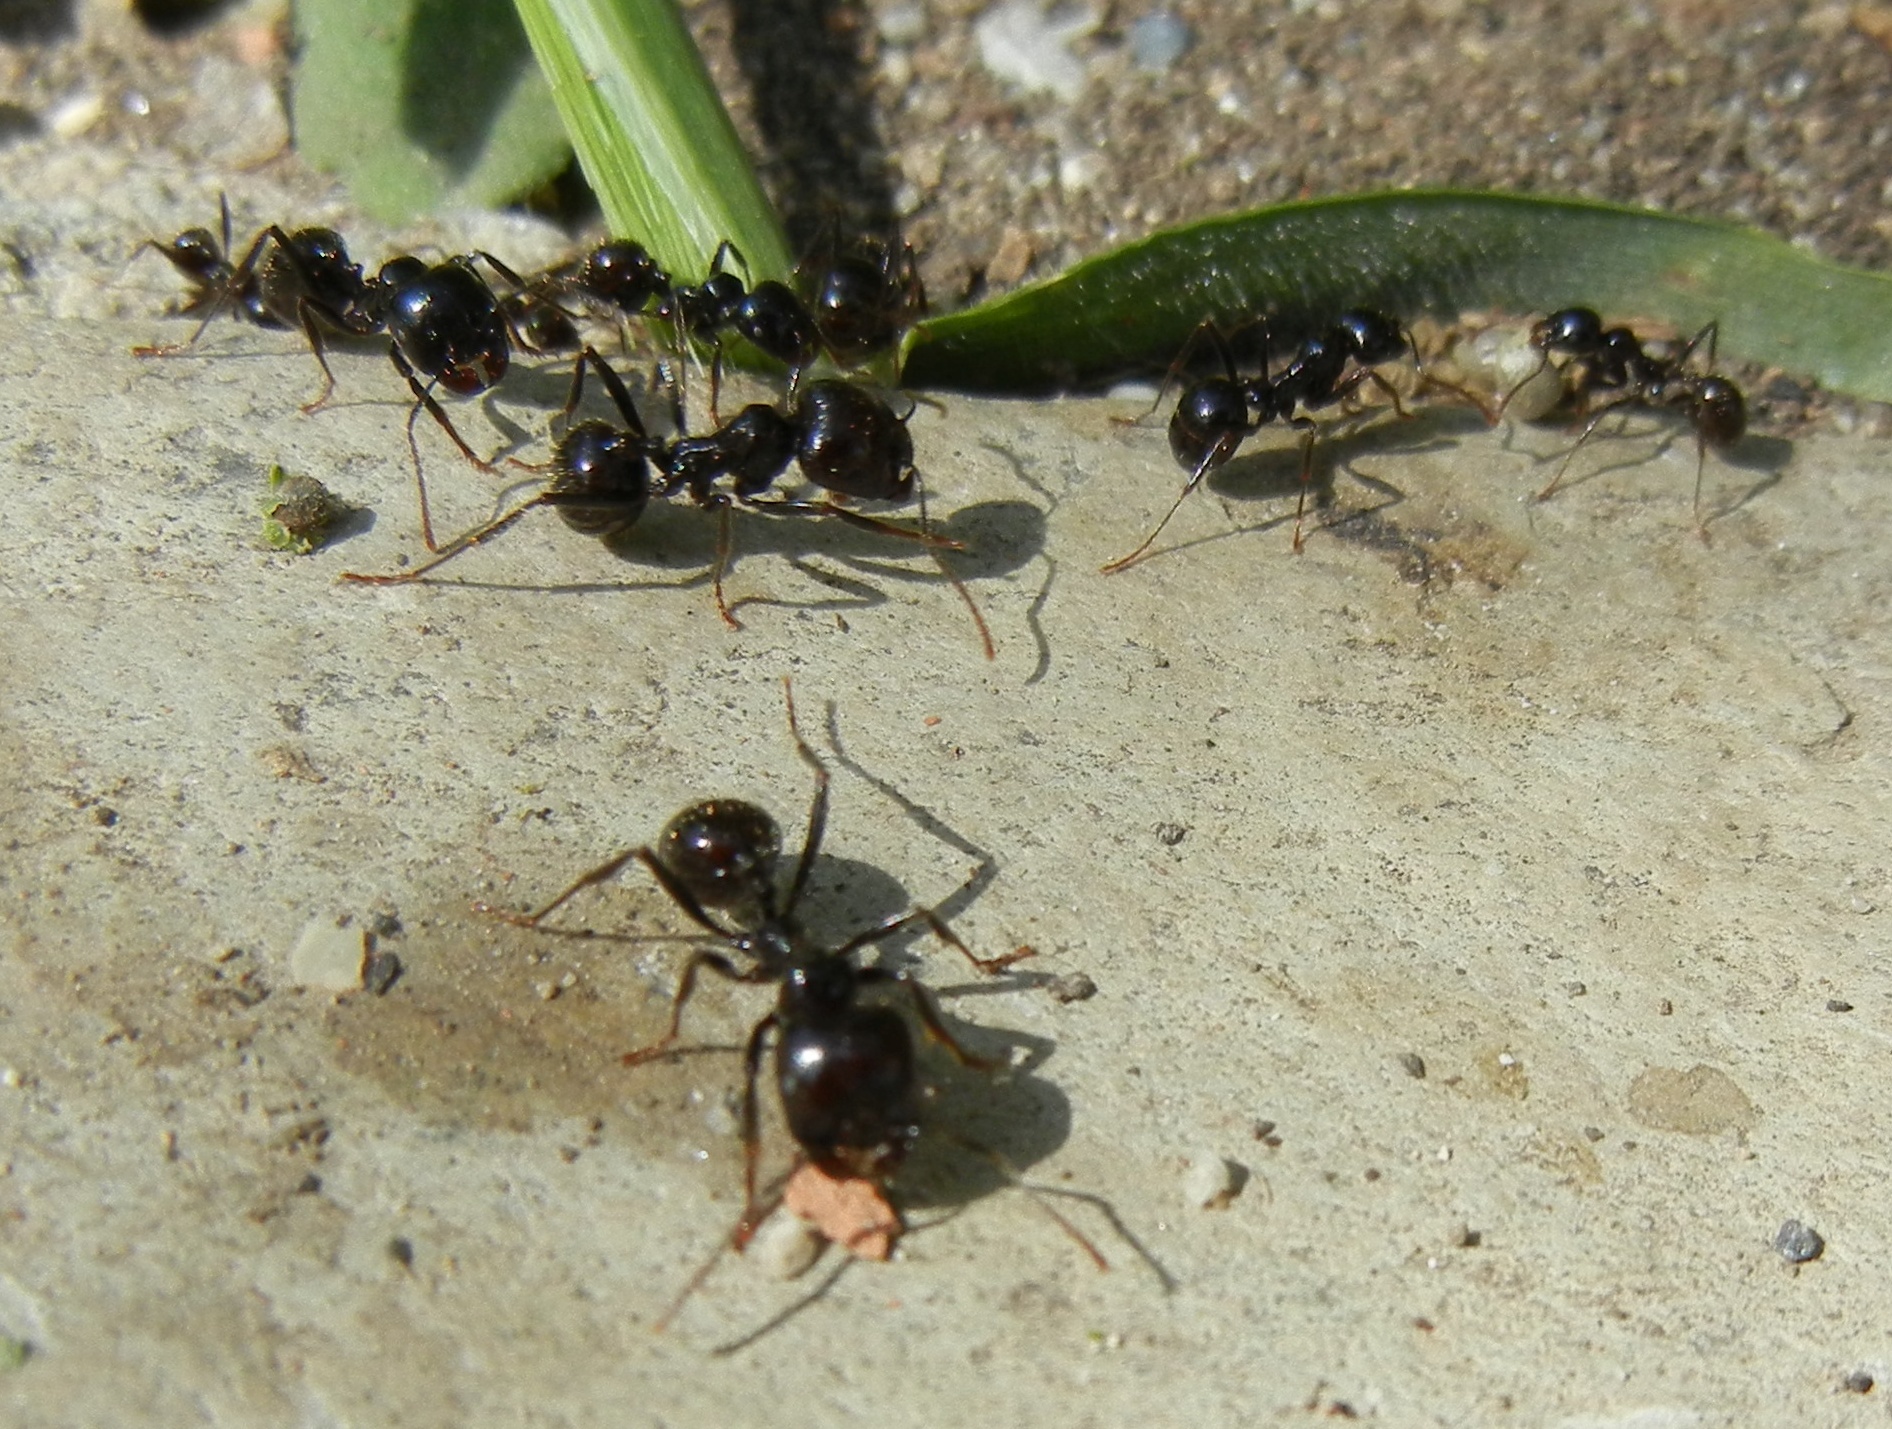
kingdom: Animalia
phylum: Arthropoda
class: Insecta
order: Hymenoptera
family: Formicidae
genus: Messor
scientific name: Messor barbarus
